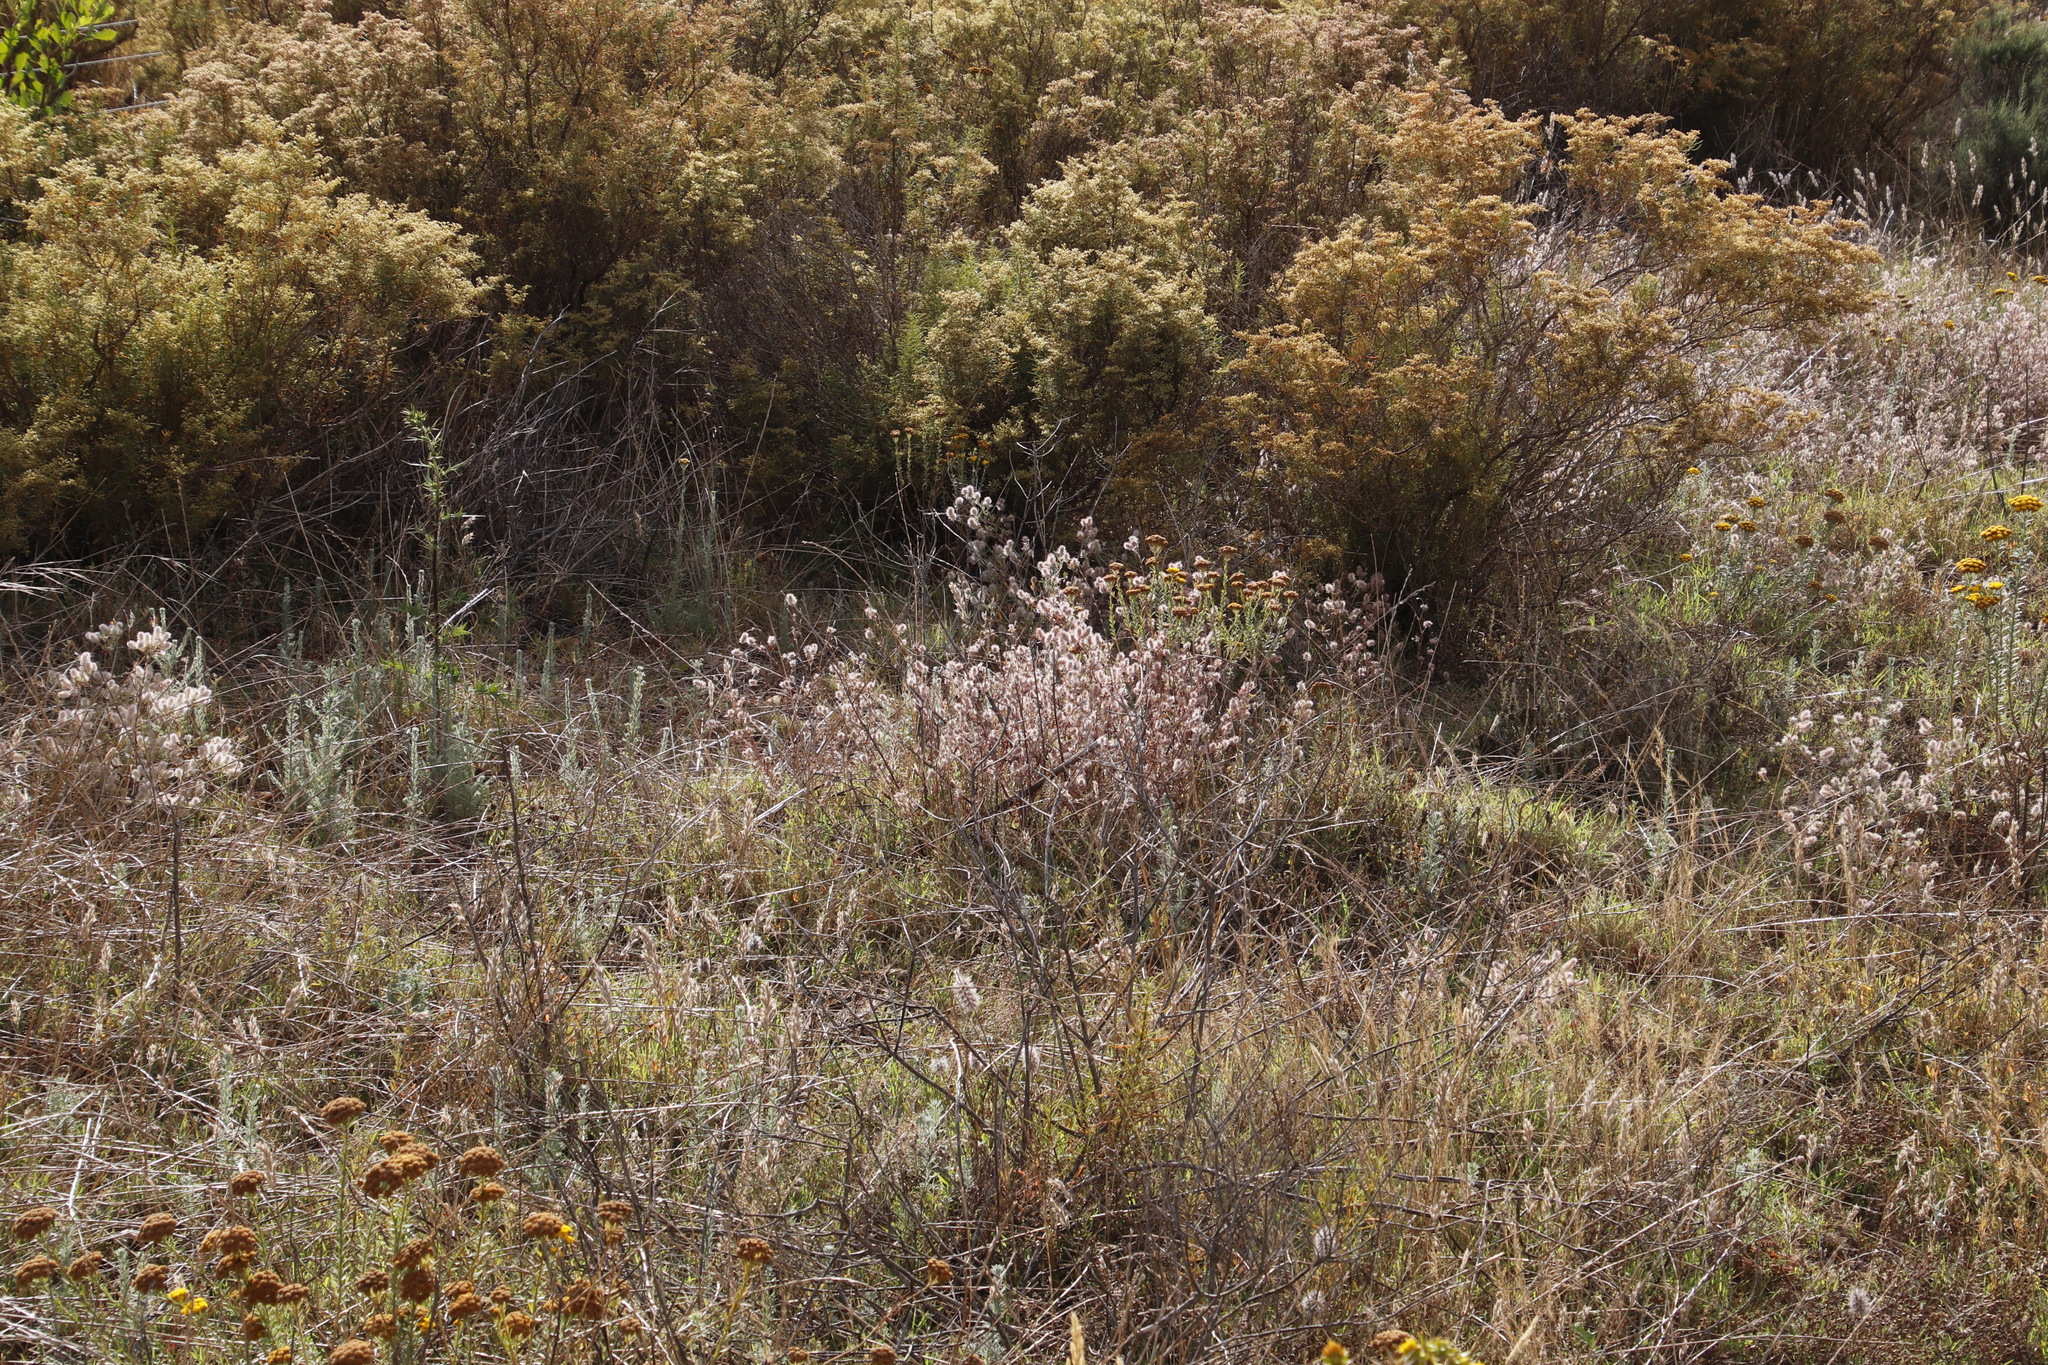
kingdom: Plantae
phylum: Tracheophyta
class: Magnoliopsida
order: Fabales
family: Fabaceae
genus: Trifolium
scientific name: Trifolium arvense
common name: Hare's-foot clover
